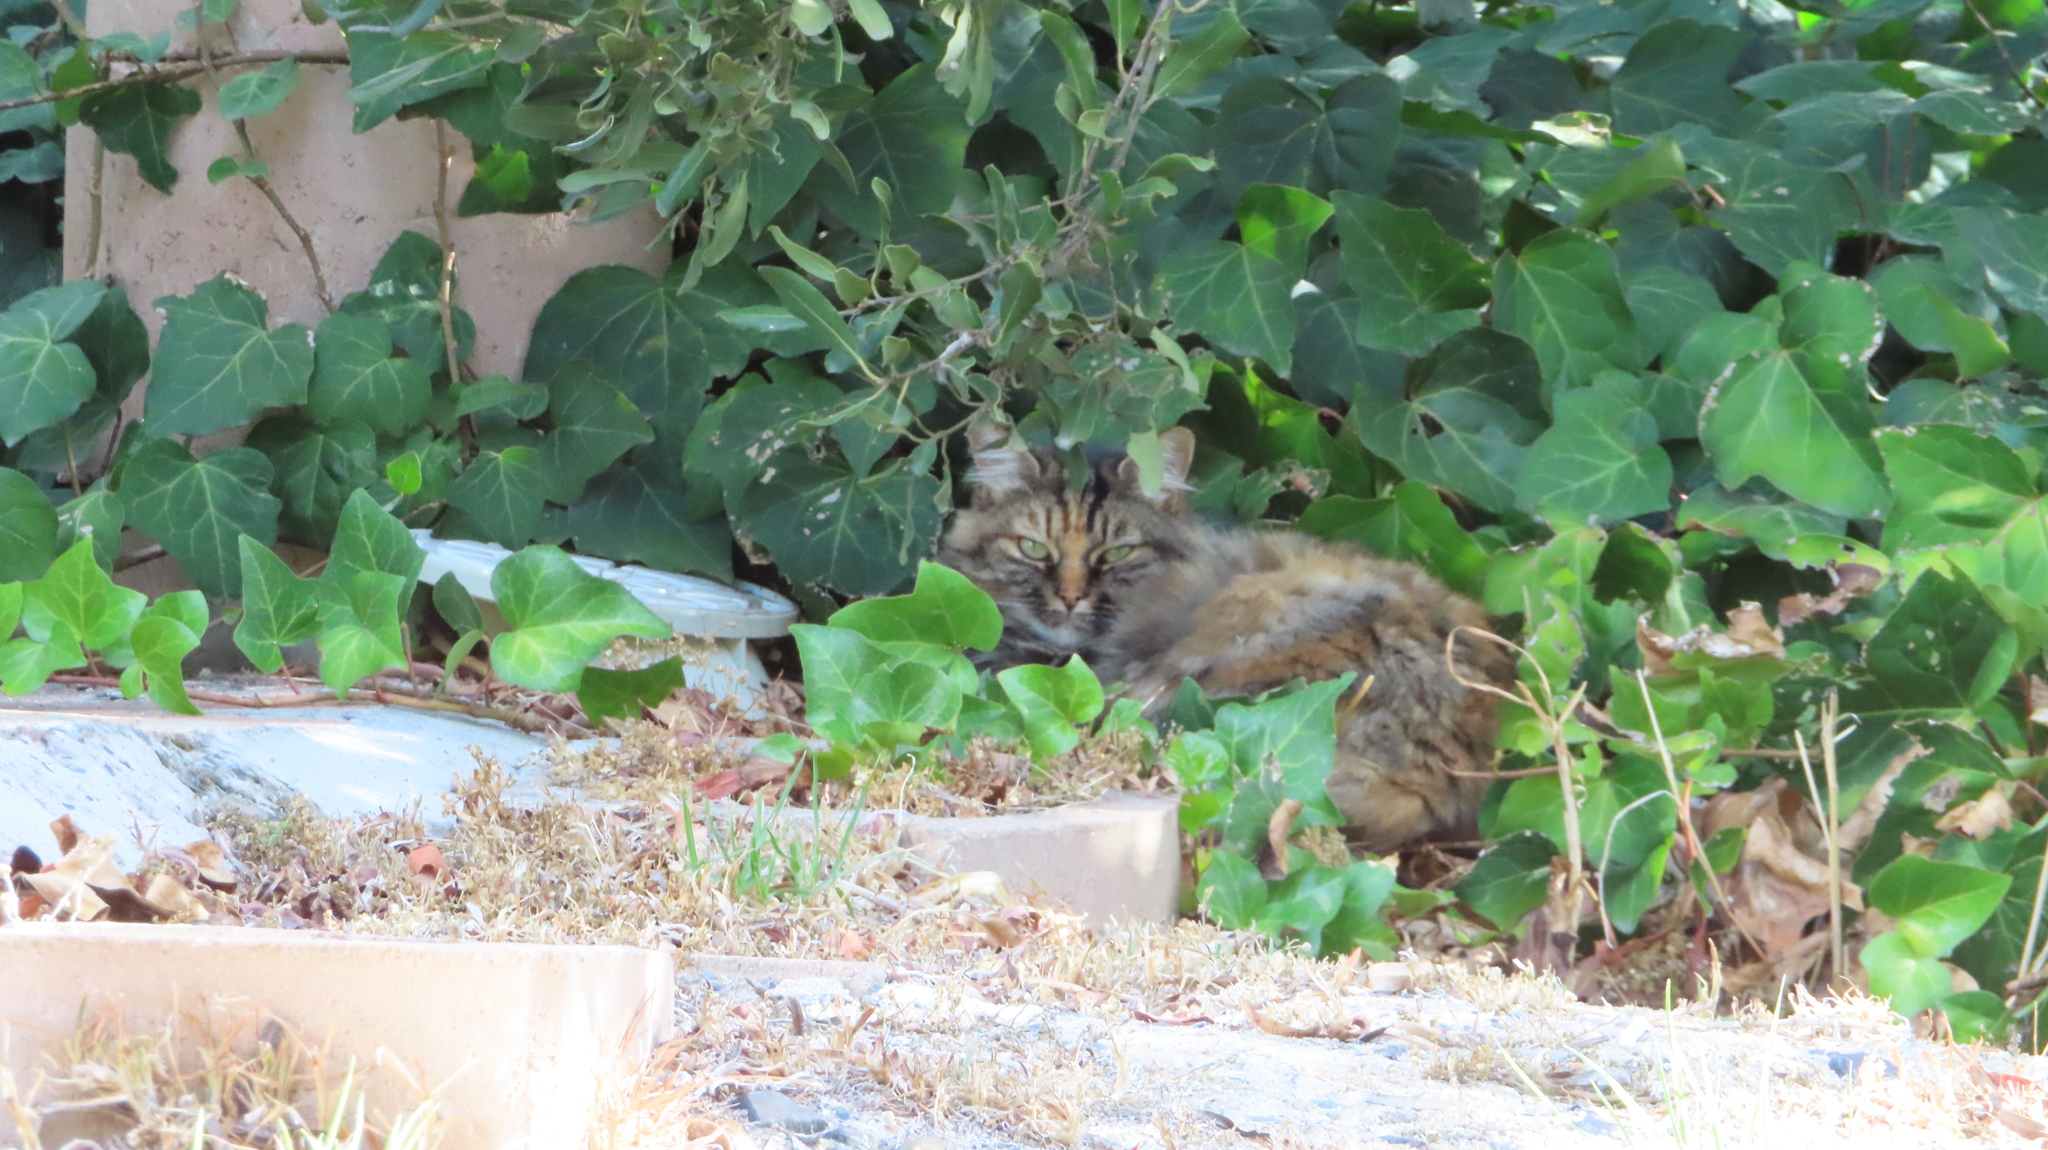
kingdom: Animalia
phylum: Chordata
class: Mammalia
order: Carnivora
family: Felidae
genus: Felis
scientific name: Felis catus
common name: Domestic cat
